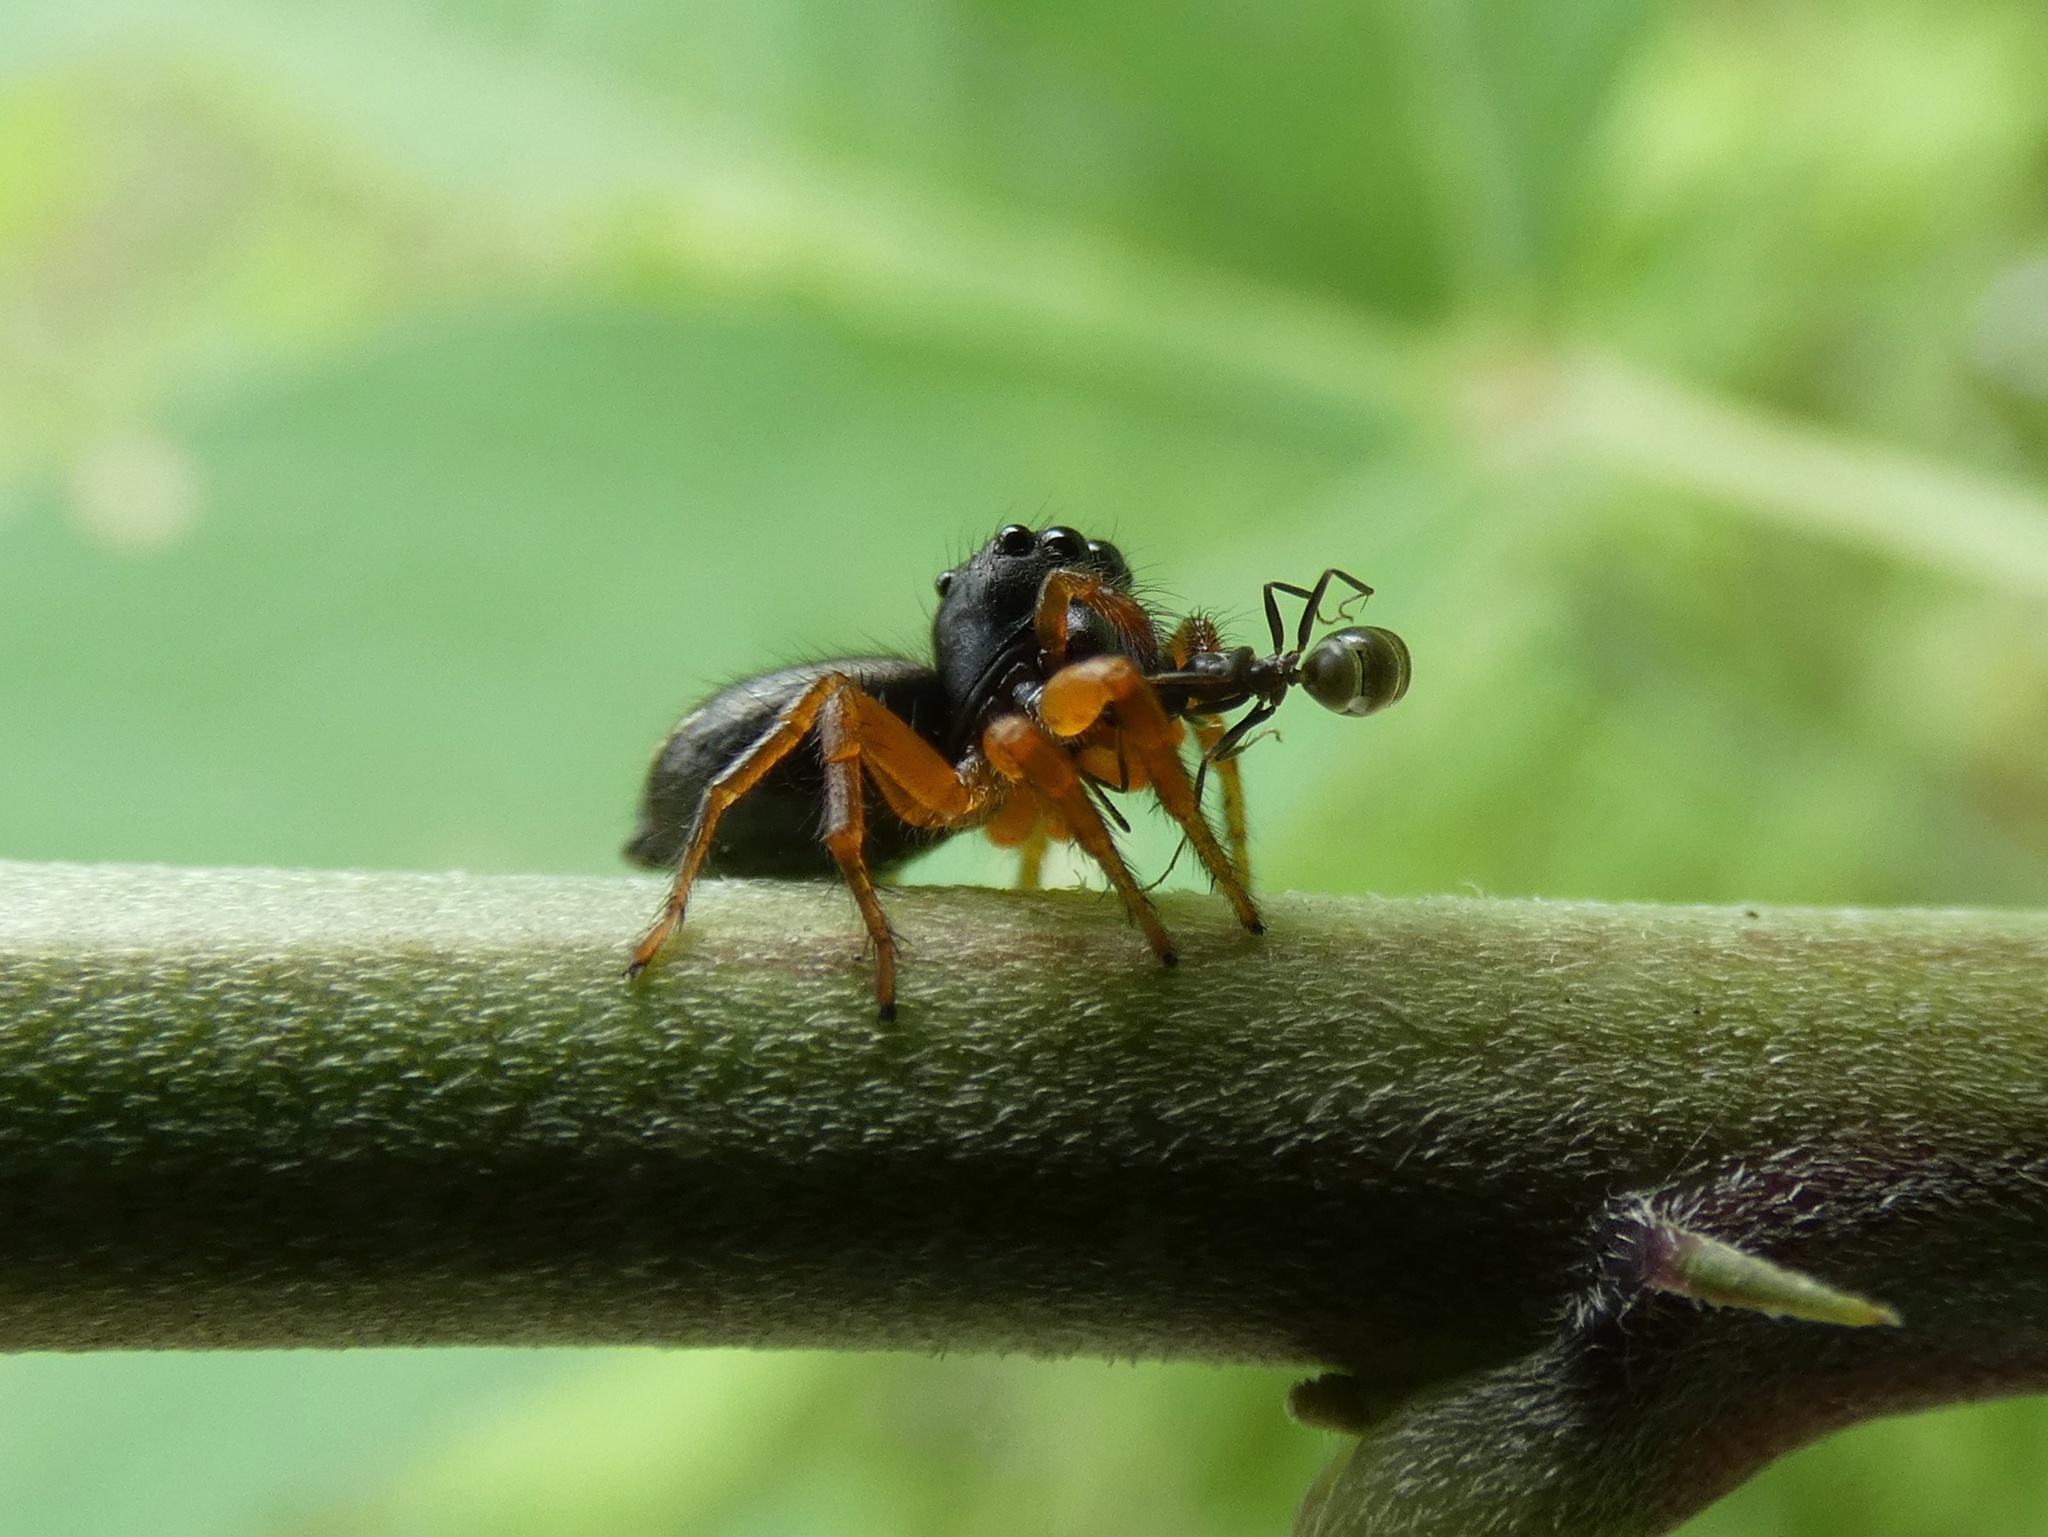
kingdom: Animalia
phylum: Arthropoda
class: Arachnida
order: Araneae
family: Salticidae
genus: Zenodorus
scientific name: Zenodorus orbiculatus
